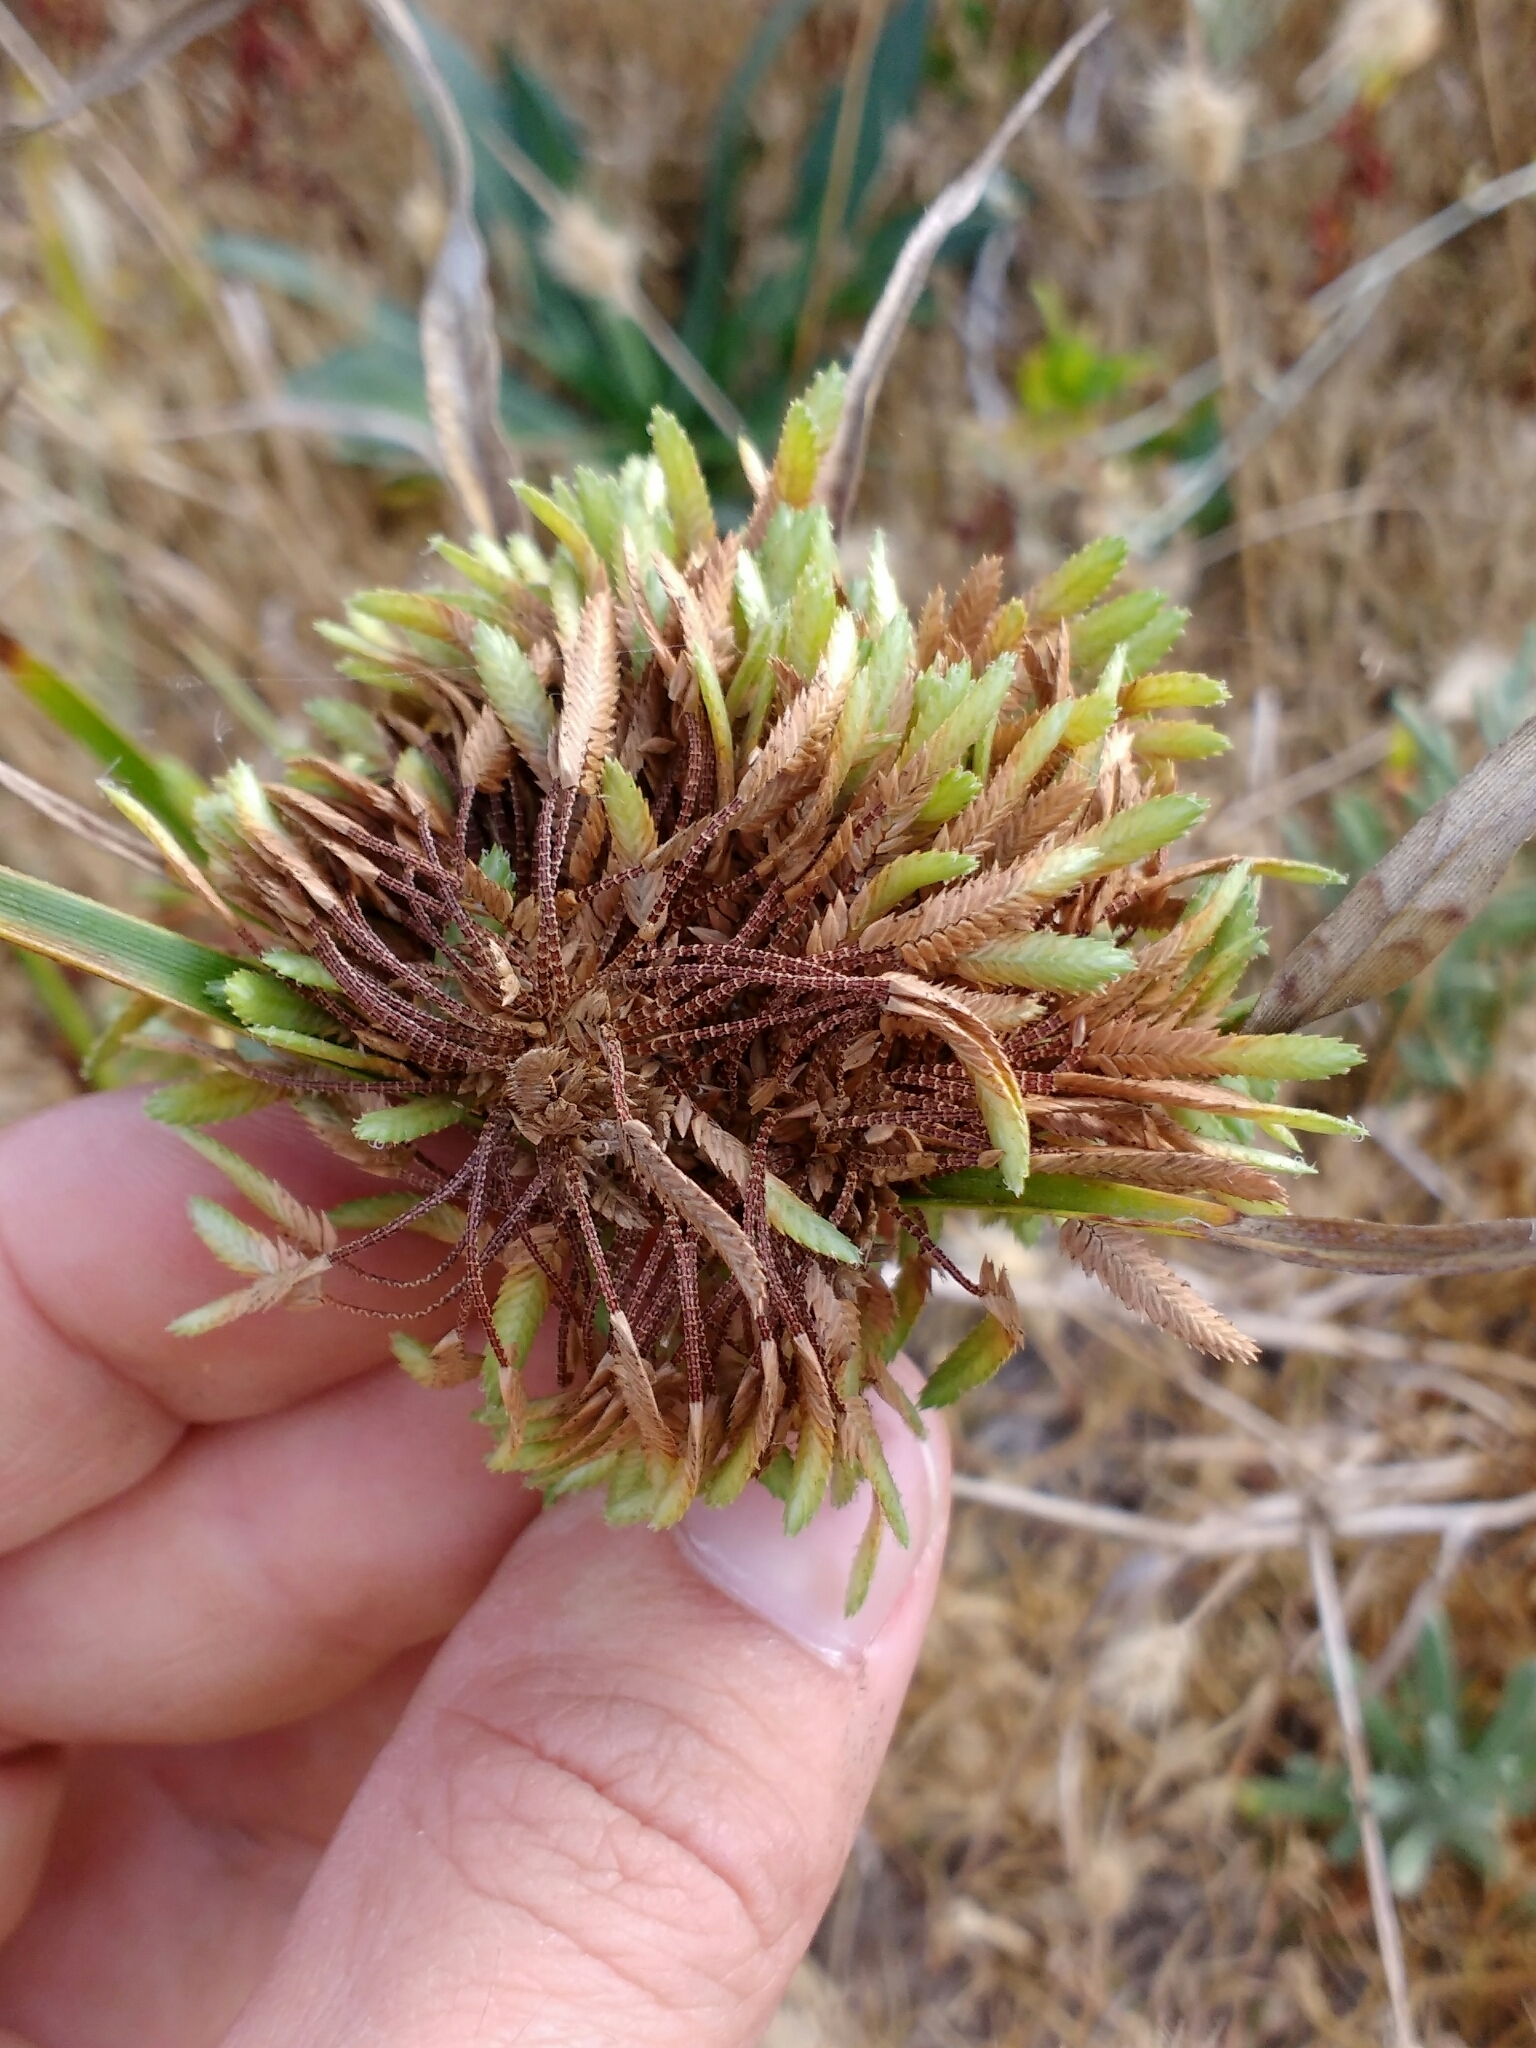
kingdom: Plantae
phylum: Tracheophyta
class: Liliopsida
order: Poales
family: Cyperaceae
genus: Cyperus
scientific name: Cyperus eragrostis
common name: Tall flatsedge
